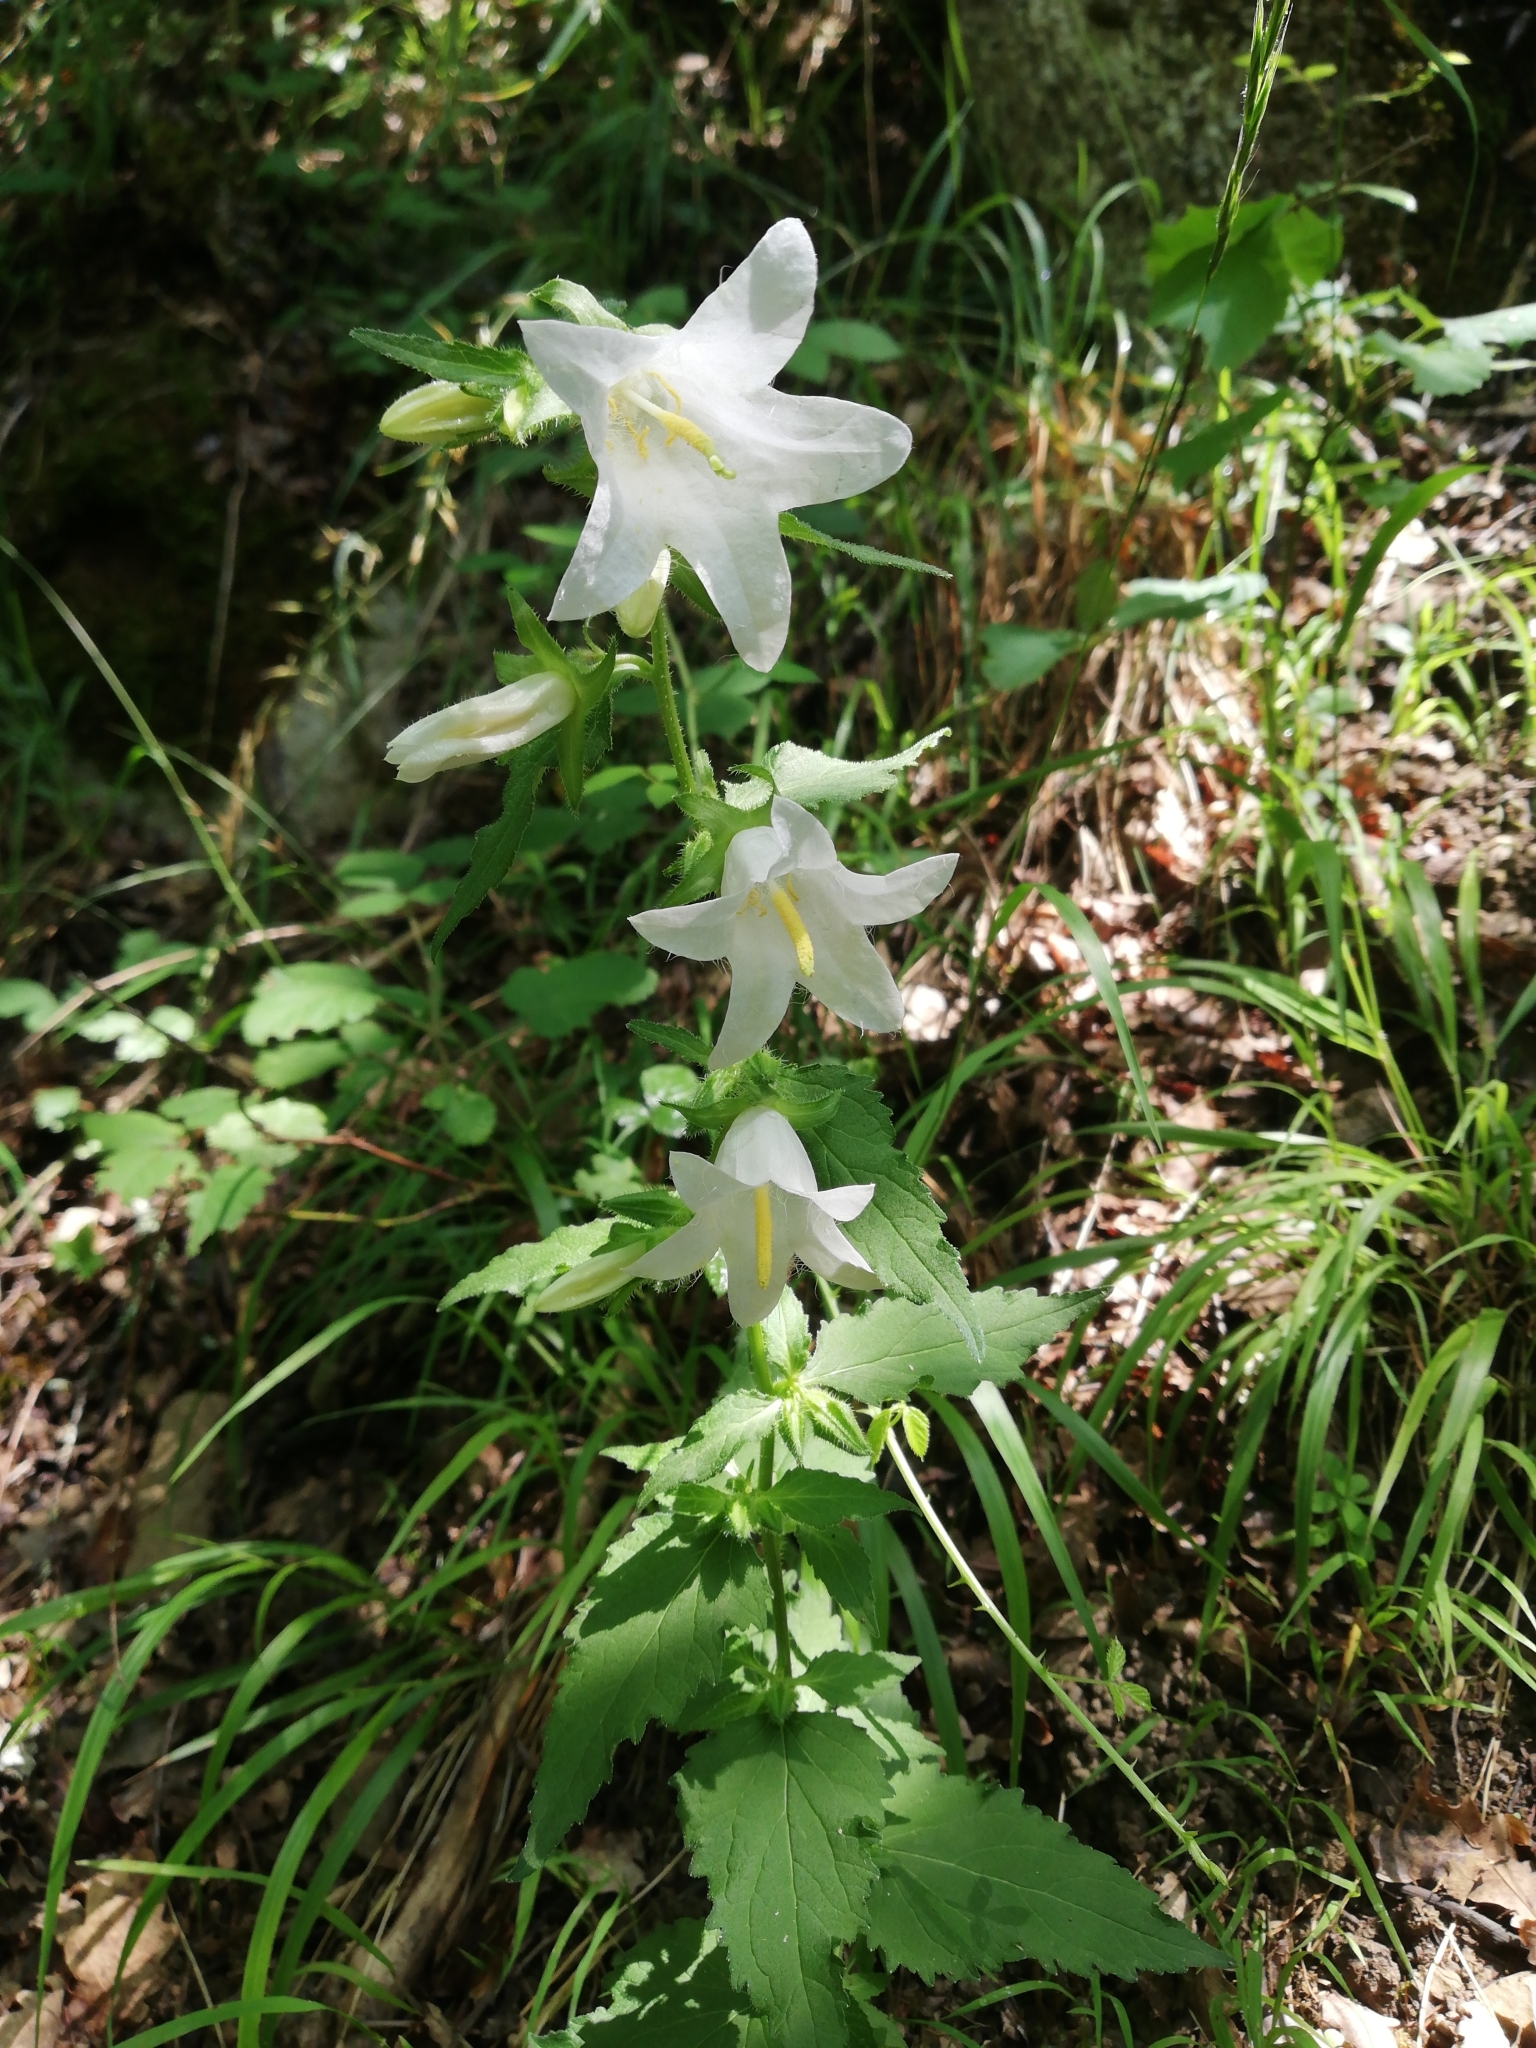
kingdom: Plantae
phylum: Tracheophyta
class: Magnoliopsida
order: Asterales
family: Campanulaceae
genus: Campanula
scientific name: Campanula trachelium
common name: Nettle-leaved bellflower
